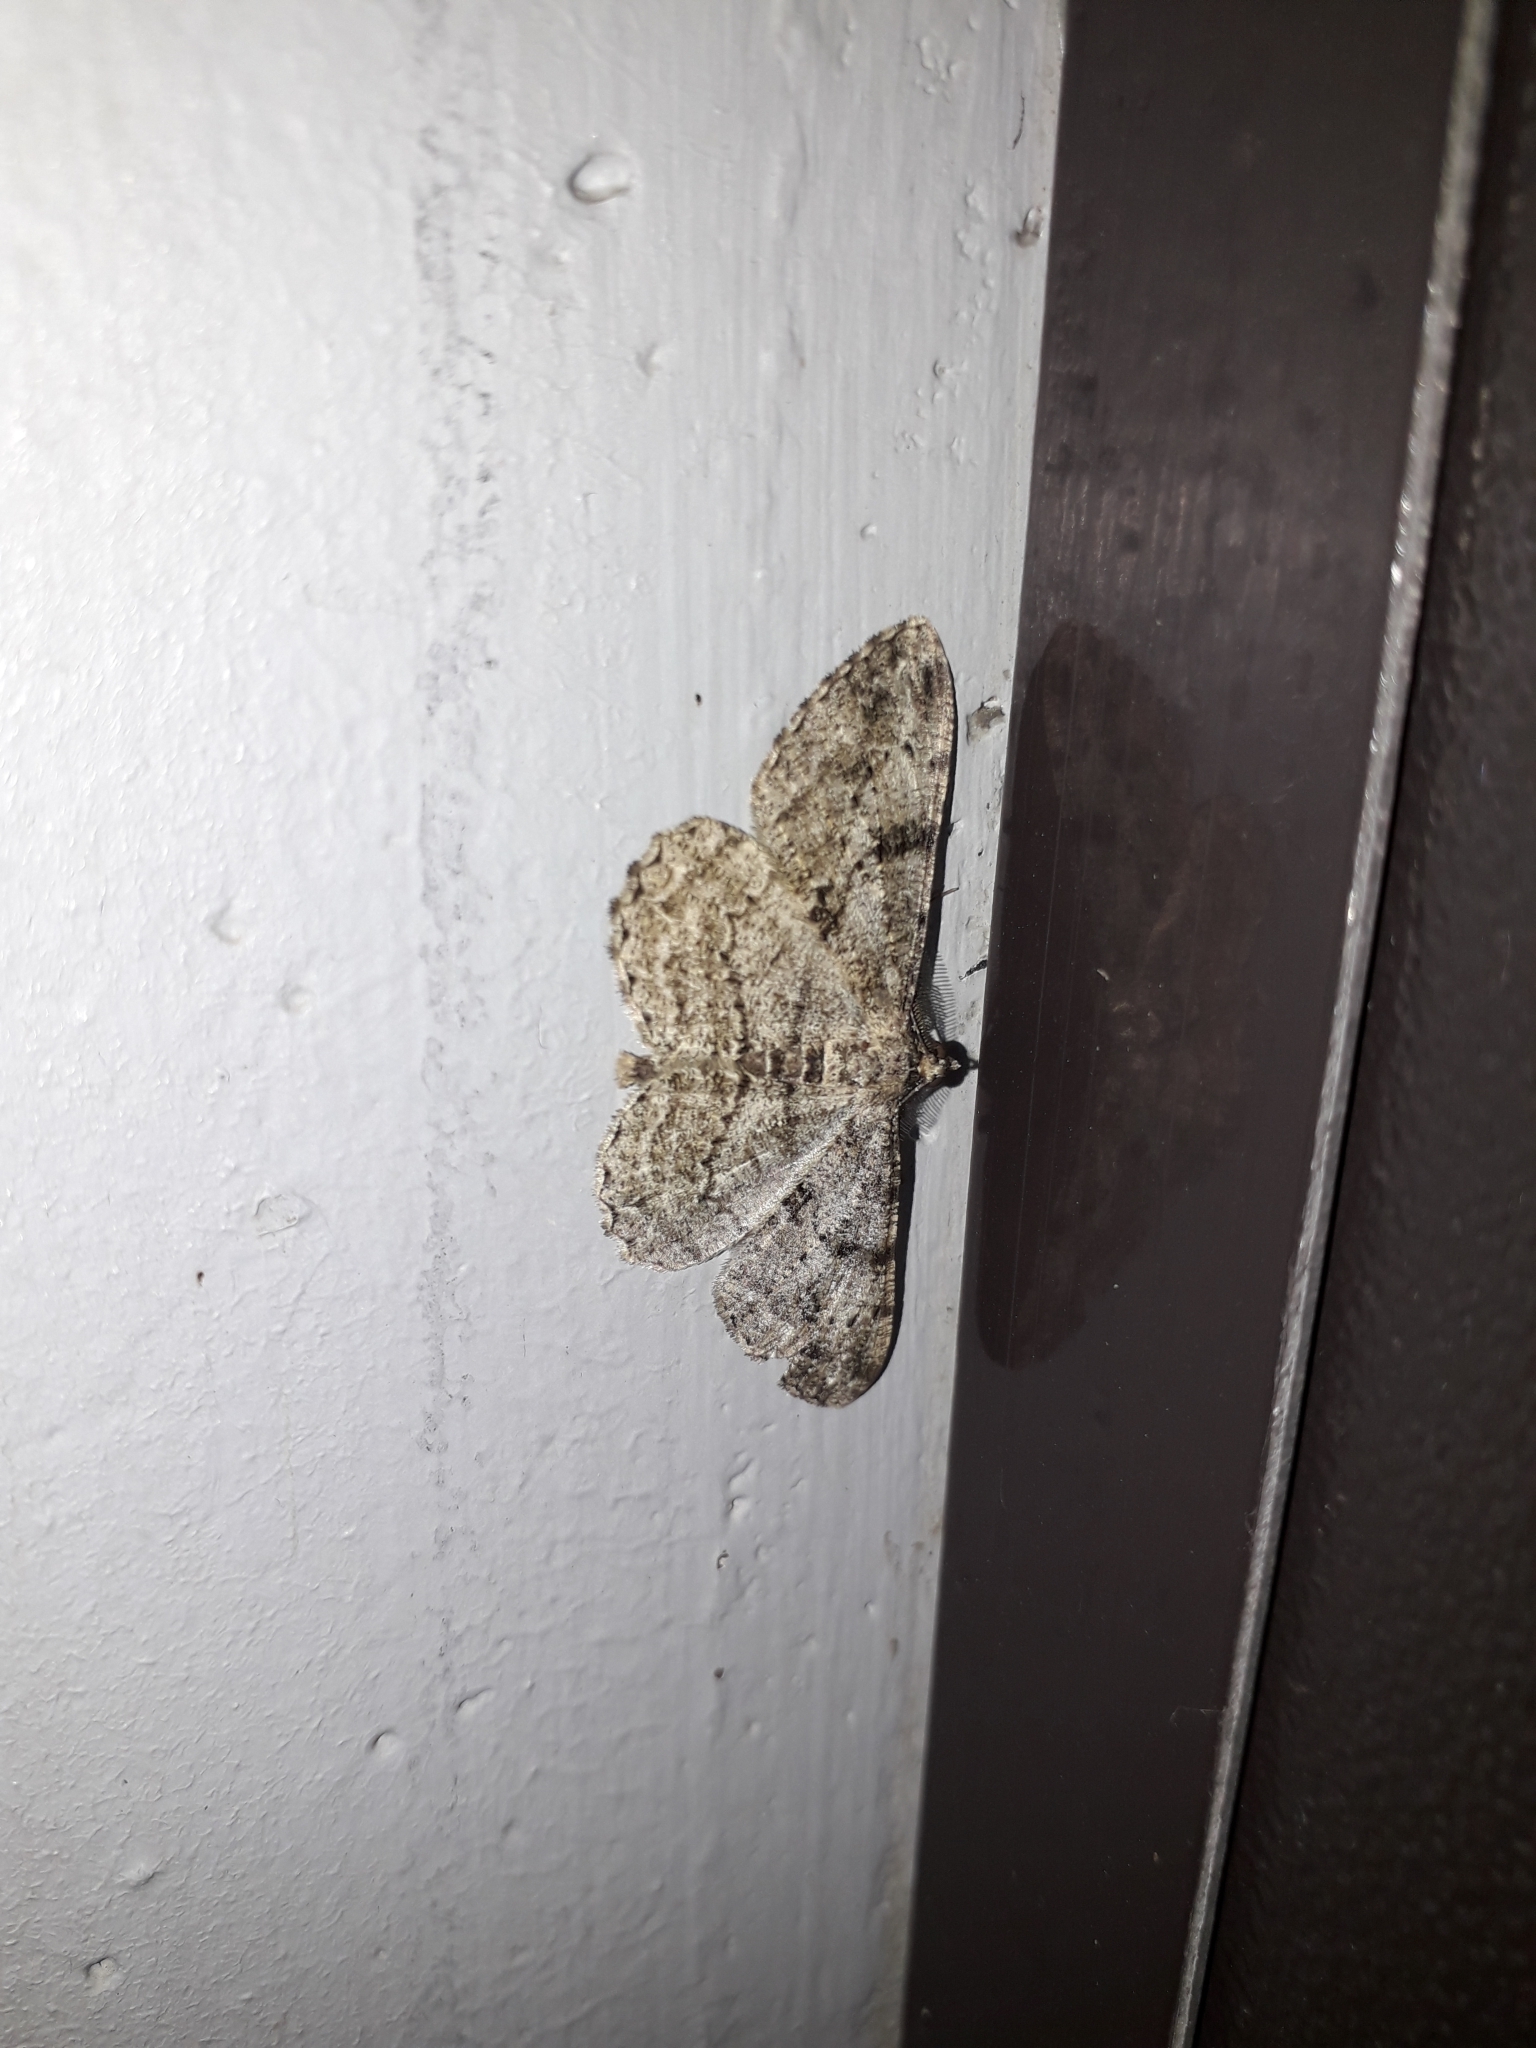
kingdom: Animalia
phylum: Arthropoda
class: Insecta
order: Lepidoptera
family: Geometridae
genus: Peribatodes
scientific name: Peribatodes rhomboidaria
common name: Willow beauty
